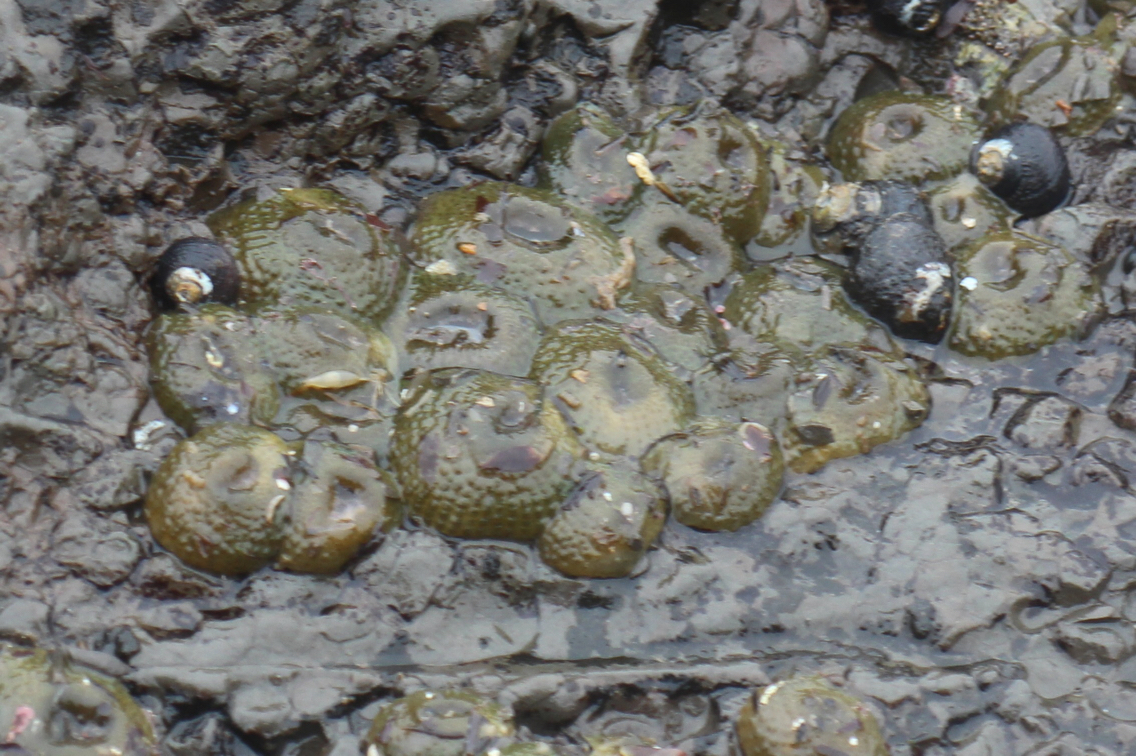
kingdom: Animalia
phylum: Cnidaria
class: Anthozoa
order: Actiniaria
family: Actiniidae
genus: Anthopleura
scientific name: Anthopleura elegantissima
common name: Clonal anemone
